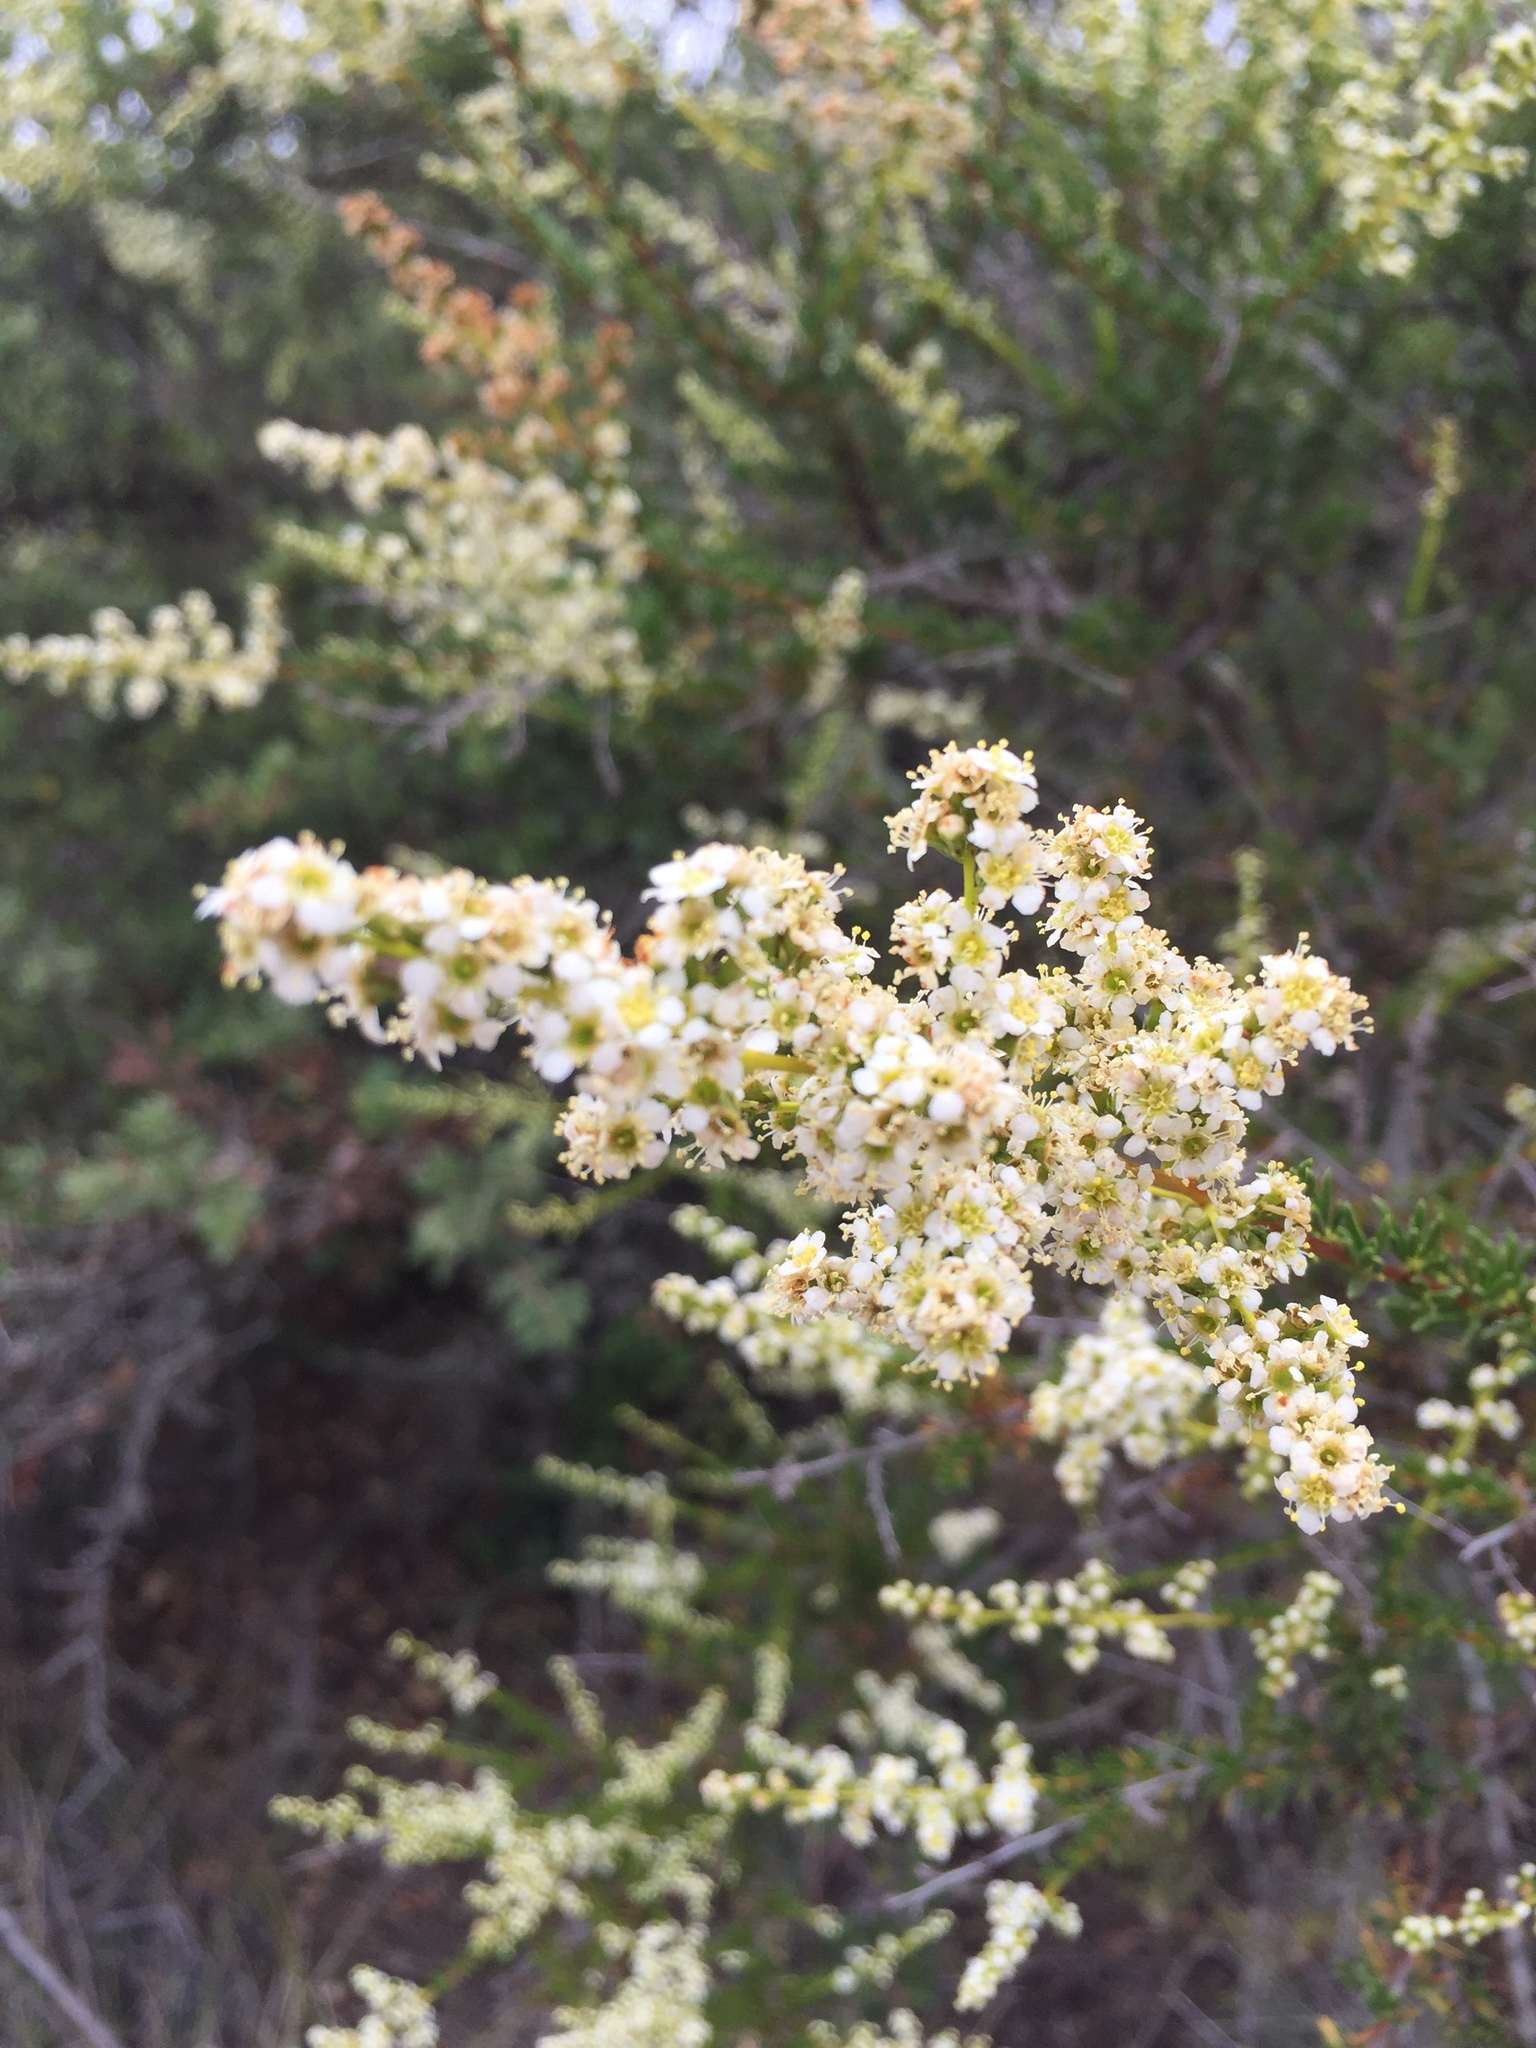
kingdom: Plantae
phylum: Tracheophyta
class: Magnoliopsida
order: Rosales
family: Rosaceae
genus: Adenostoma
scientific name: Adenostoma fasciculatum
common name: Chamise
